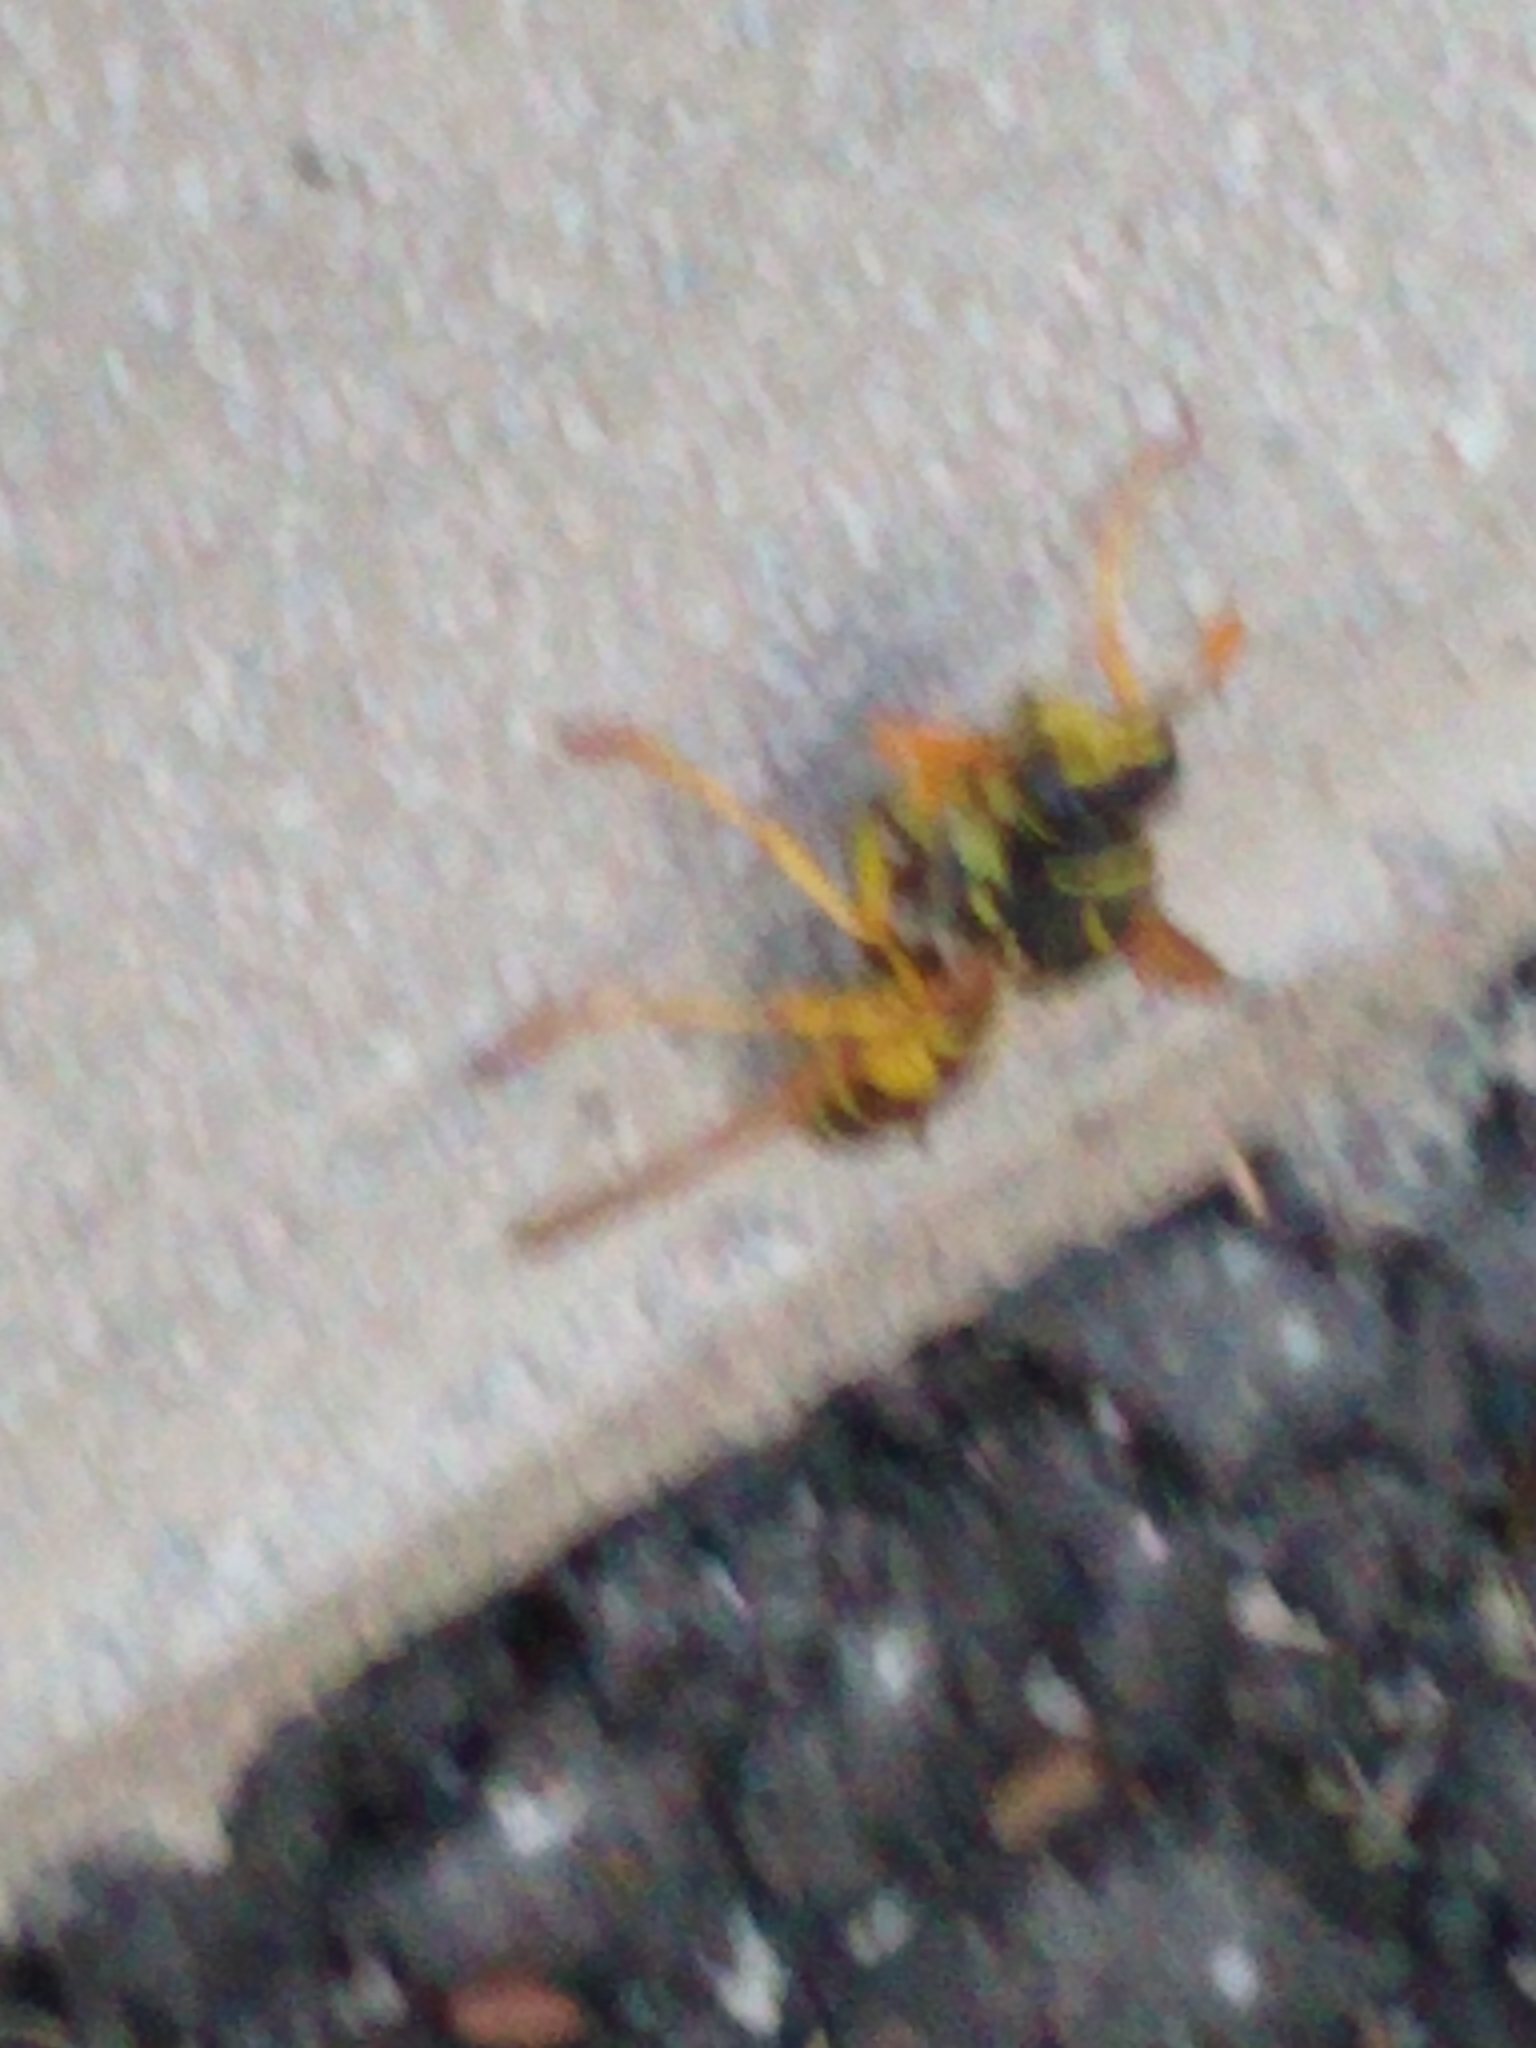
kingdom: Animalia
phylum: Arthropoda
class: Insecta
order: Hymenoptera
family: Eumenidae
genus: Polistes
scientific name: Polistes dominula
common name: Paper wasp
